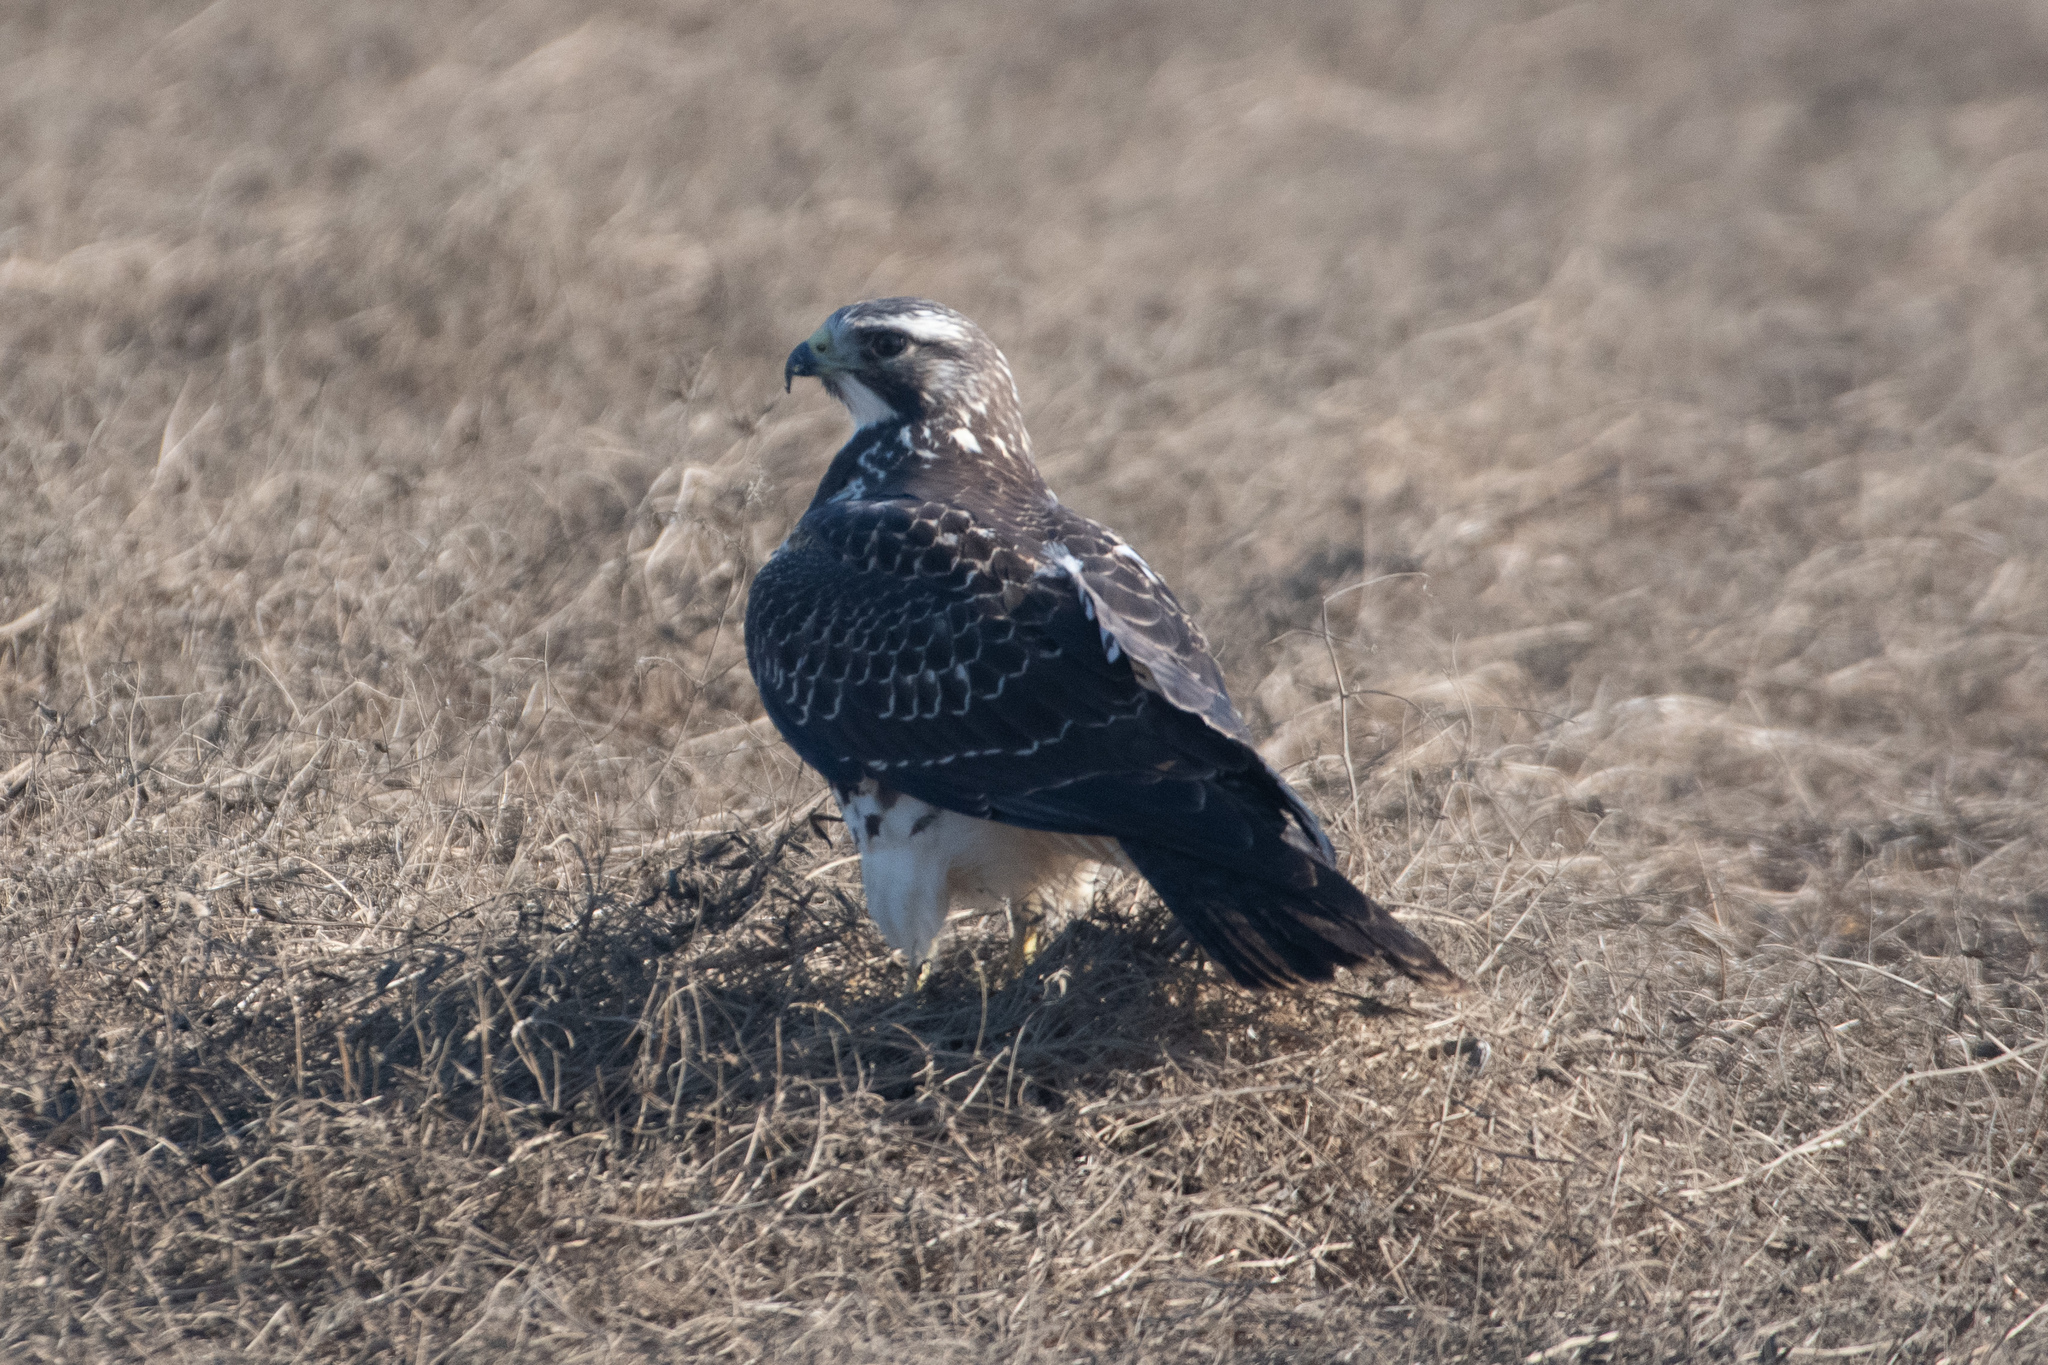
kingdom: Animalia
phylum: Chordata
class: Aves
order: Accipitriformes
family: Accipitridae
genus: Buteo
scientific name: Buteo swainsoni
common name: Swainson's hawk
